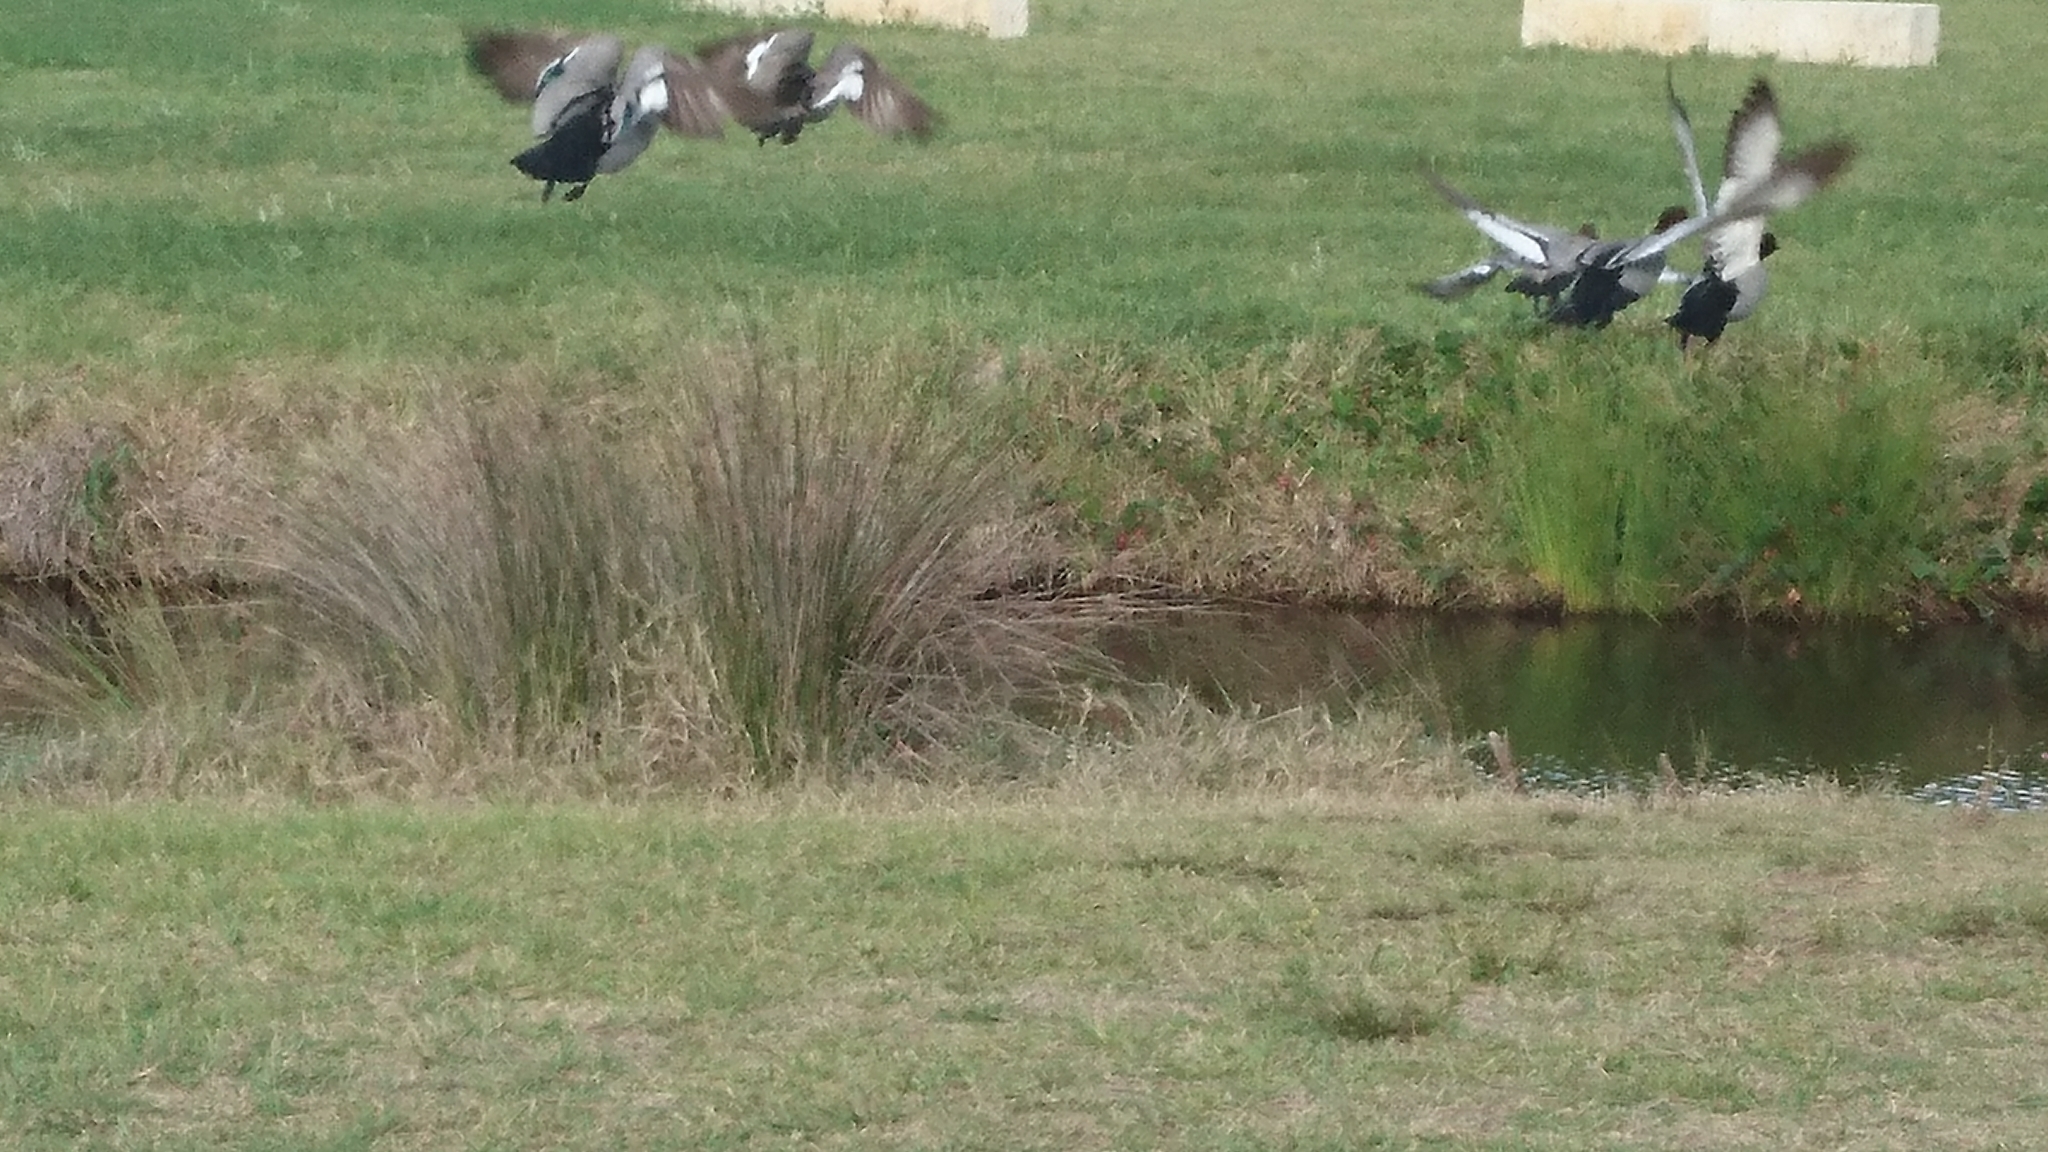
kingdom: Animalia
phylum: Chordata
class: Aves
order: Anseriformes
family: Anatidae
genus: Chenonetta
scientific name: Chenonetta jubata
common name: Maned duck
